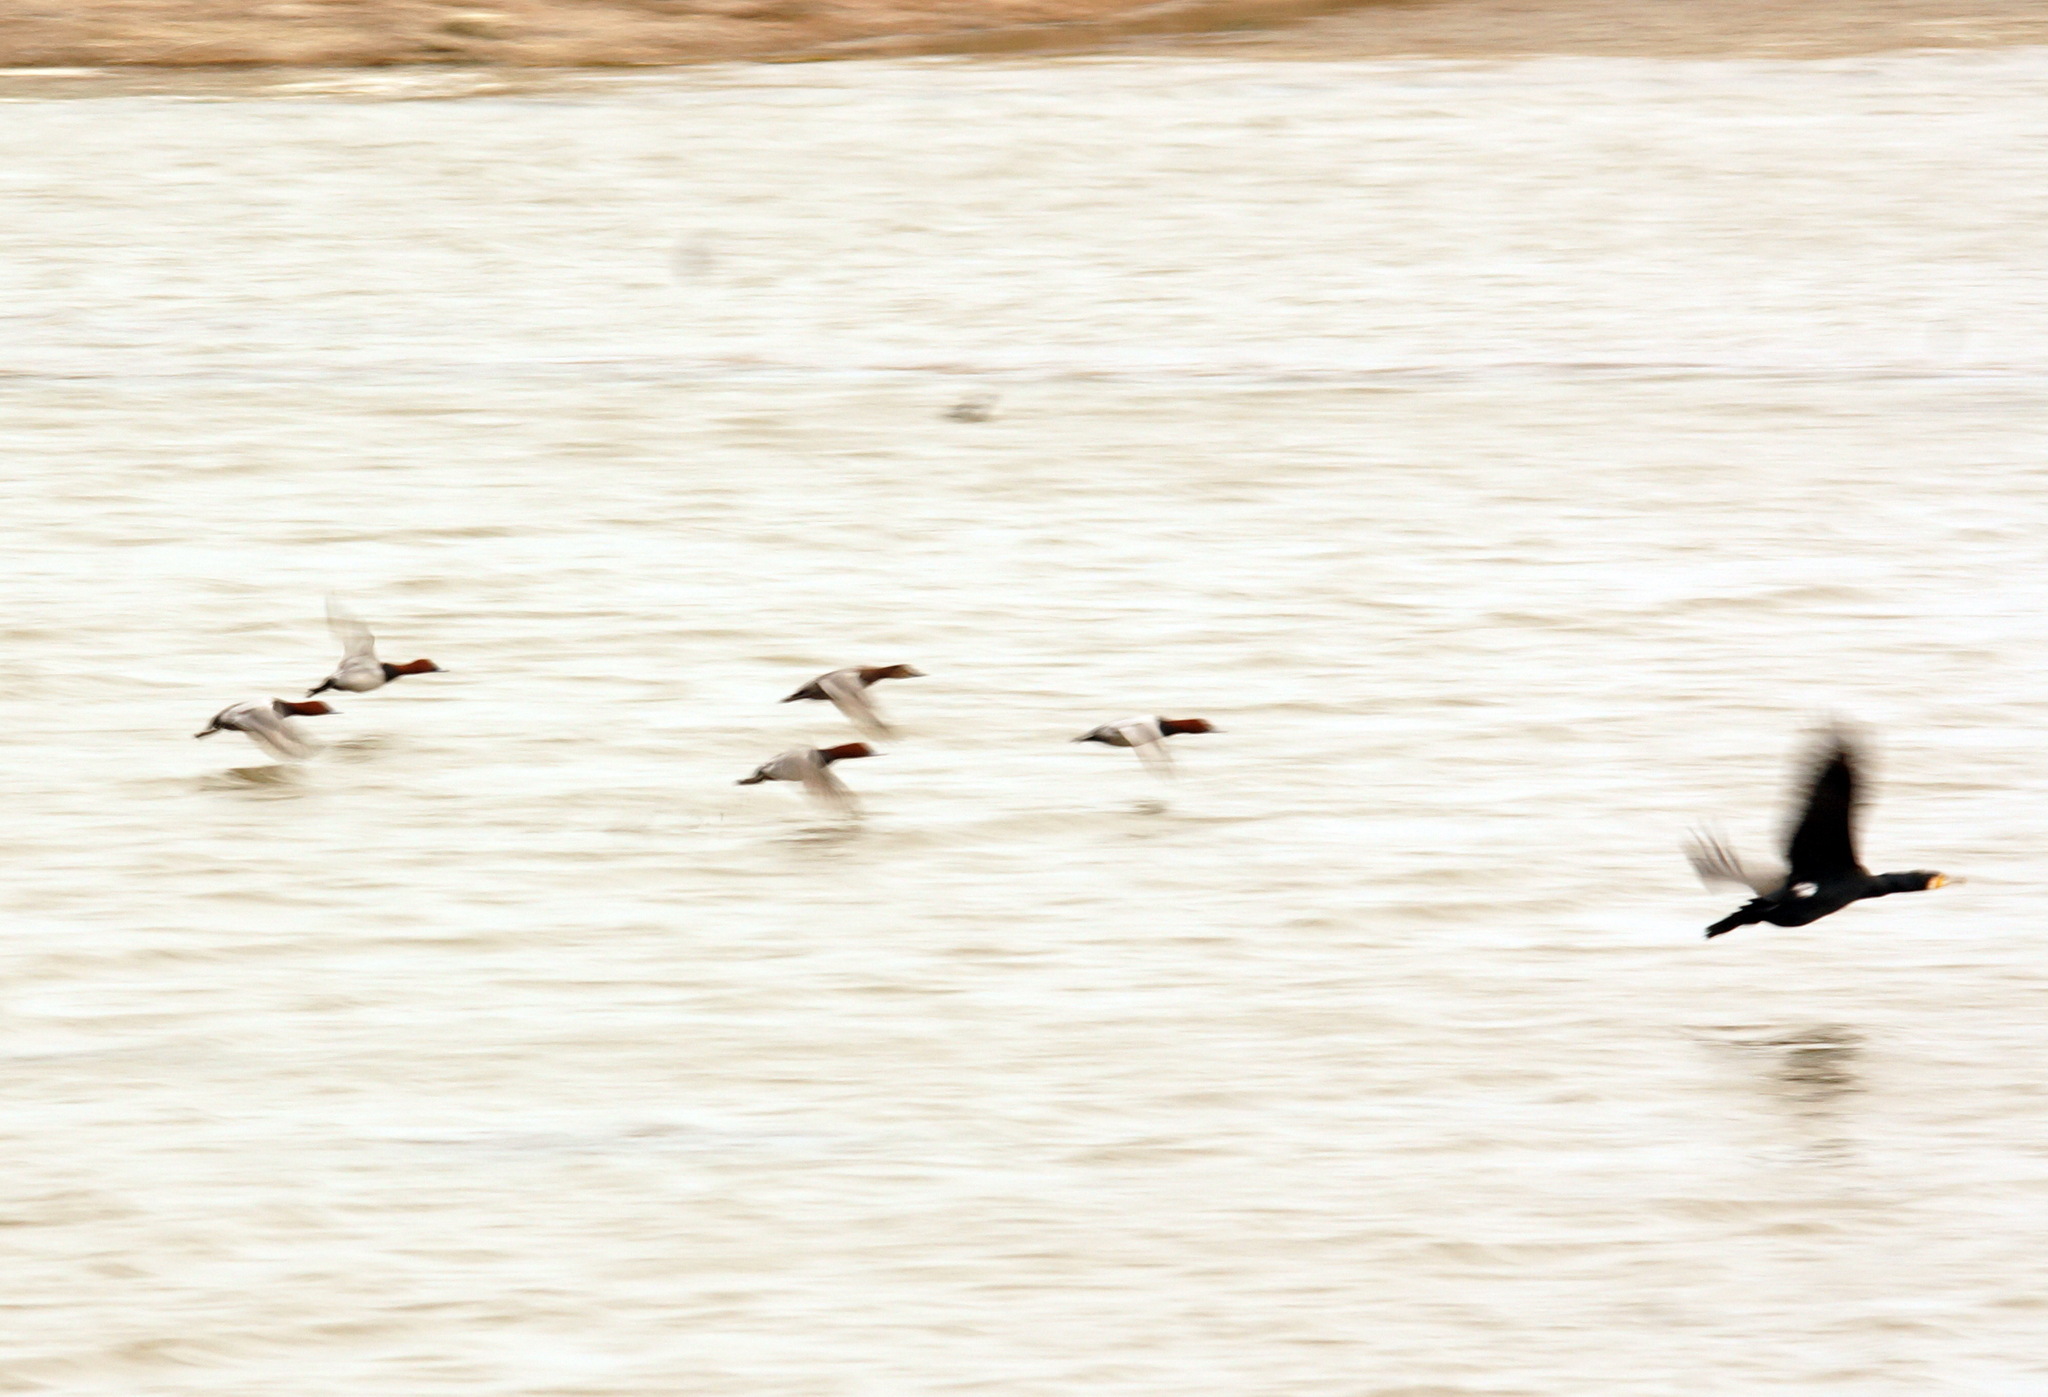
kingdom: Animalia
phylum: Chordata
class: Aves
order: Anseriformes
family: Anatidae
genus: Aythya
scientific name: Aythya ferina
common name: Common pochard
